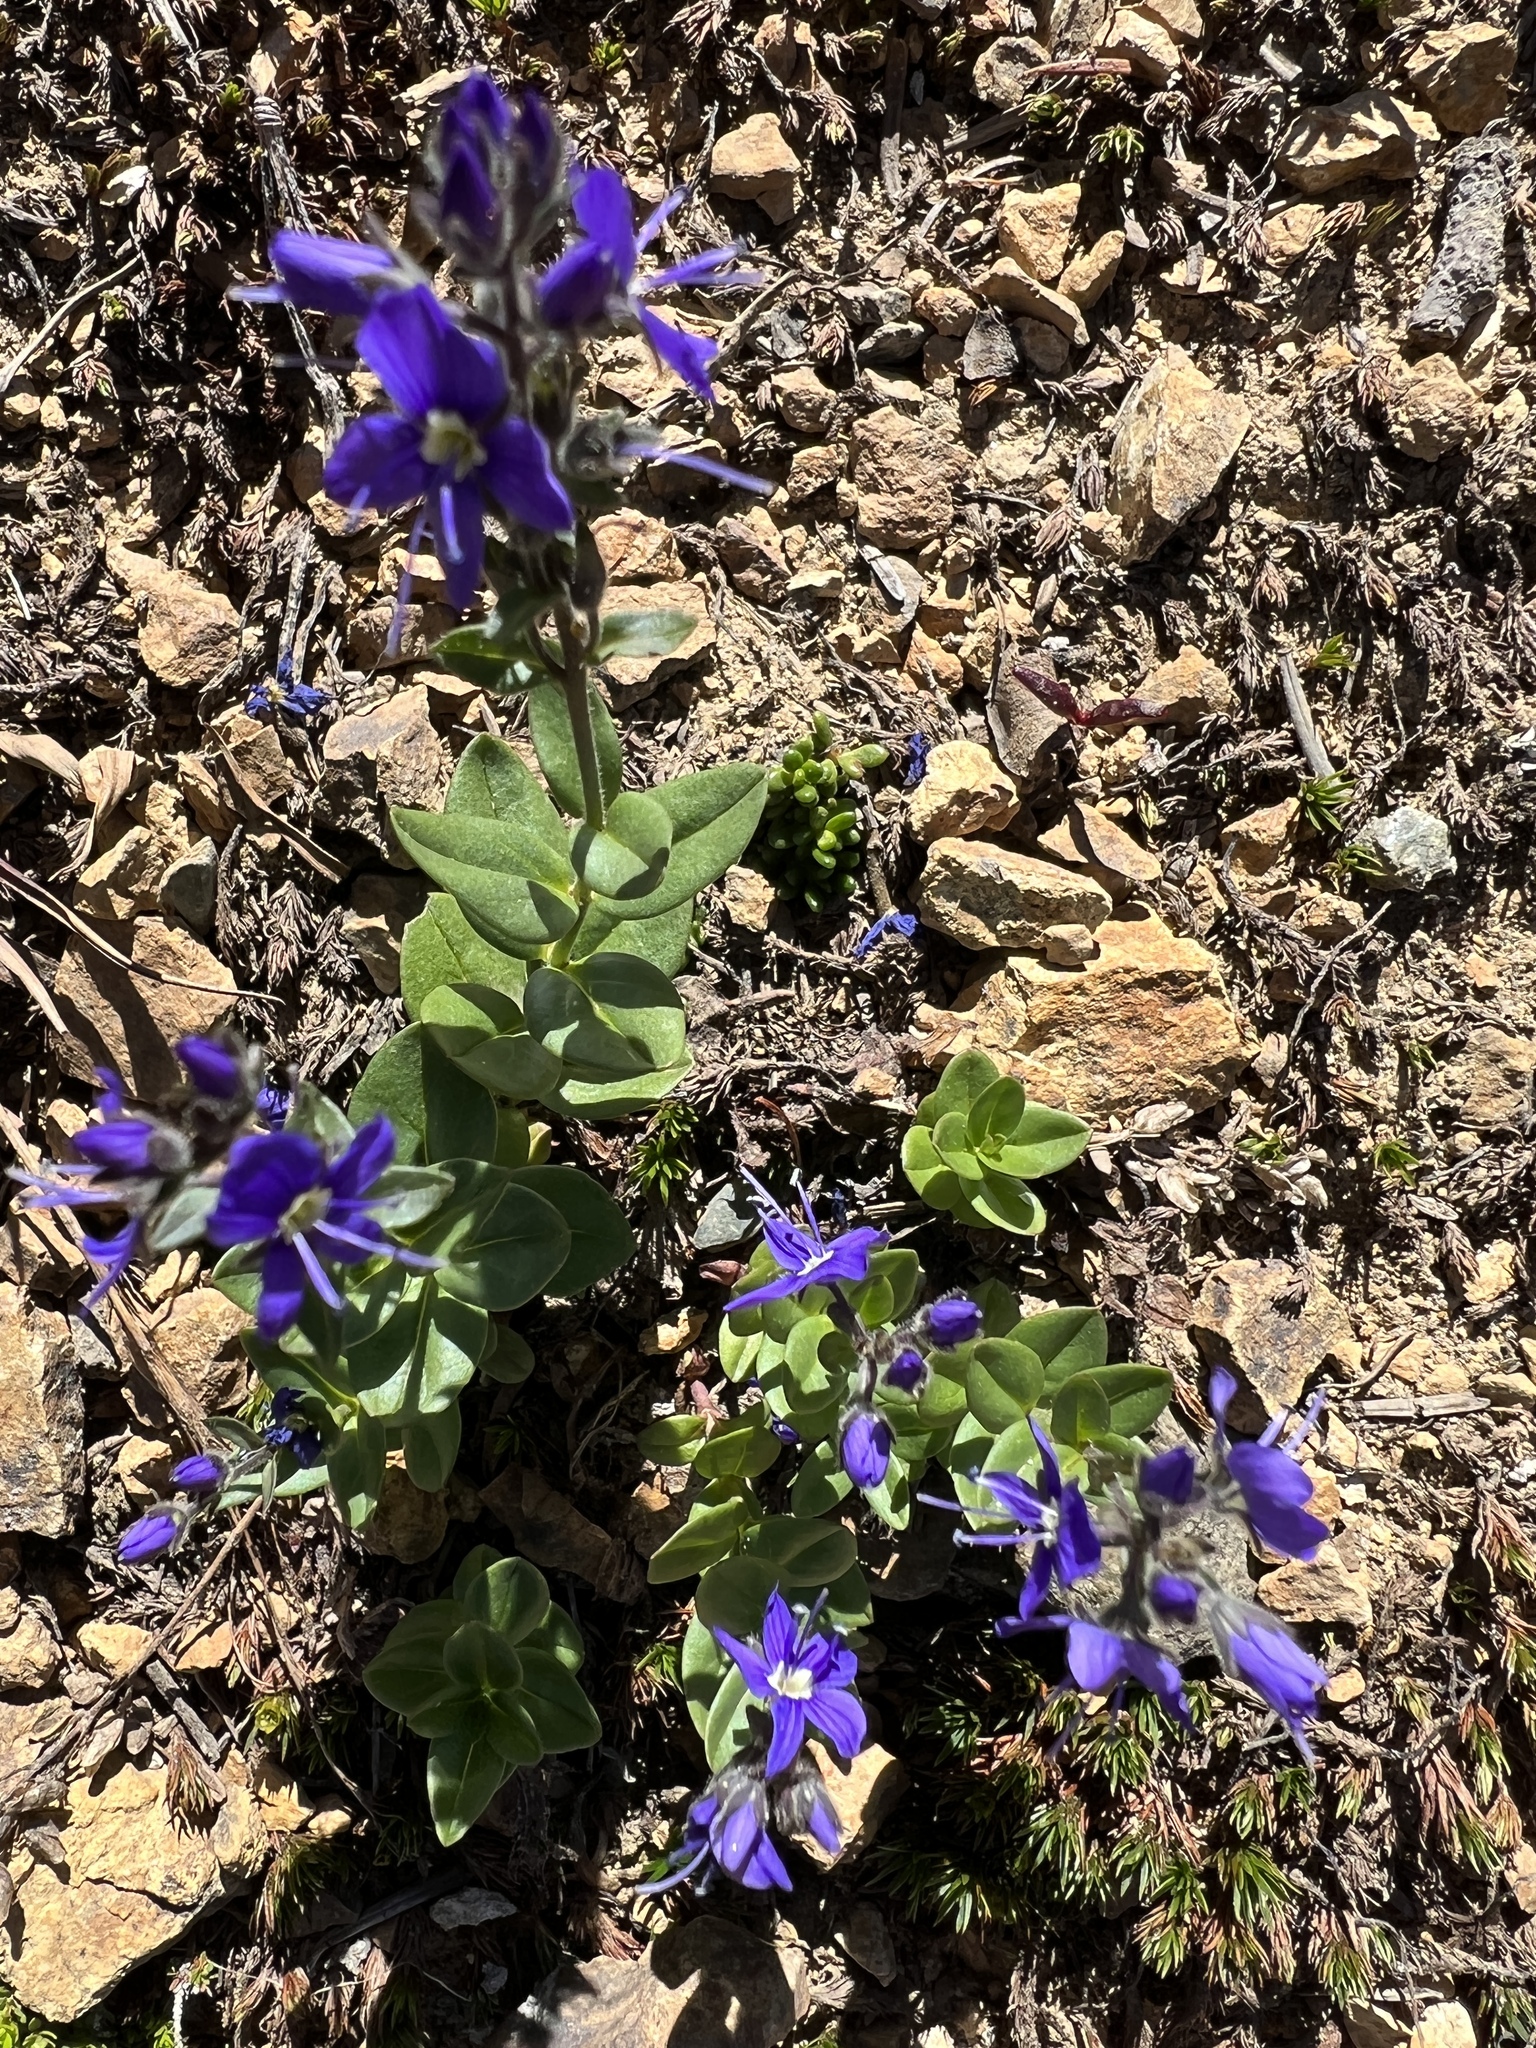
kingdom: Plantae
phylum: Tracheophyta
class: Magnoliopsida
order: Lamiales
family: Plantaginaceae
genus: Veronica
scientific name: Veronica cusickii
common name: Cusick's speedwell
